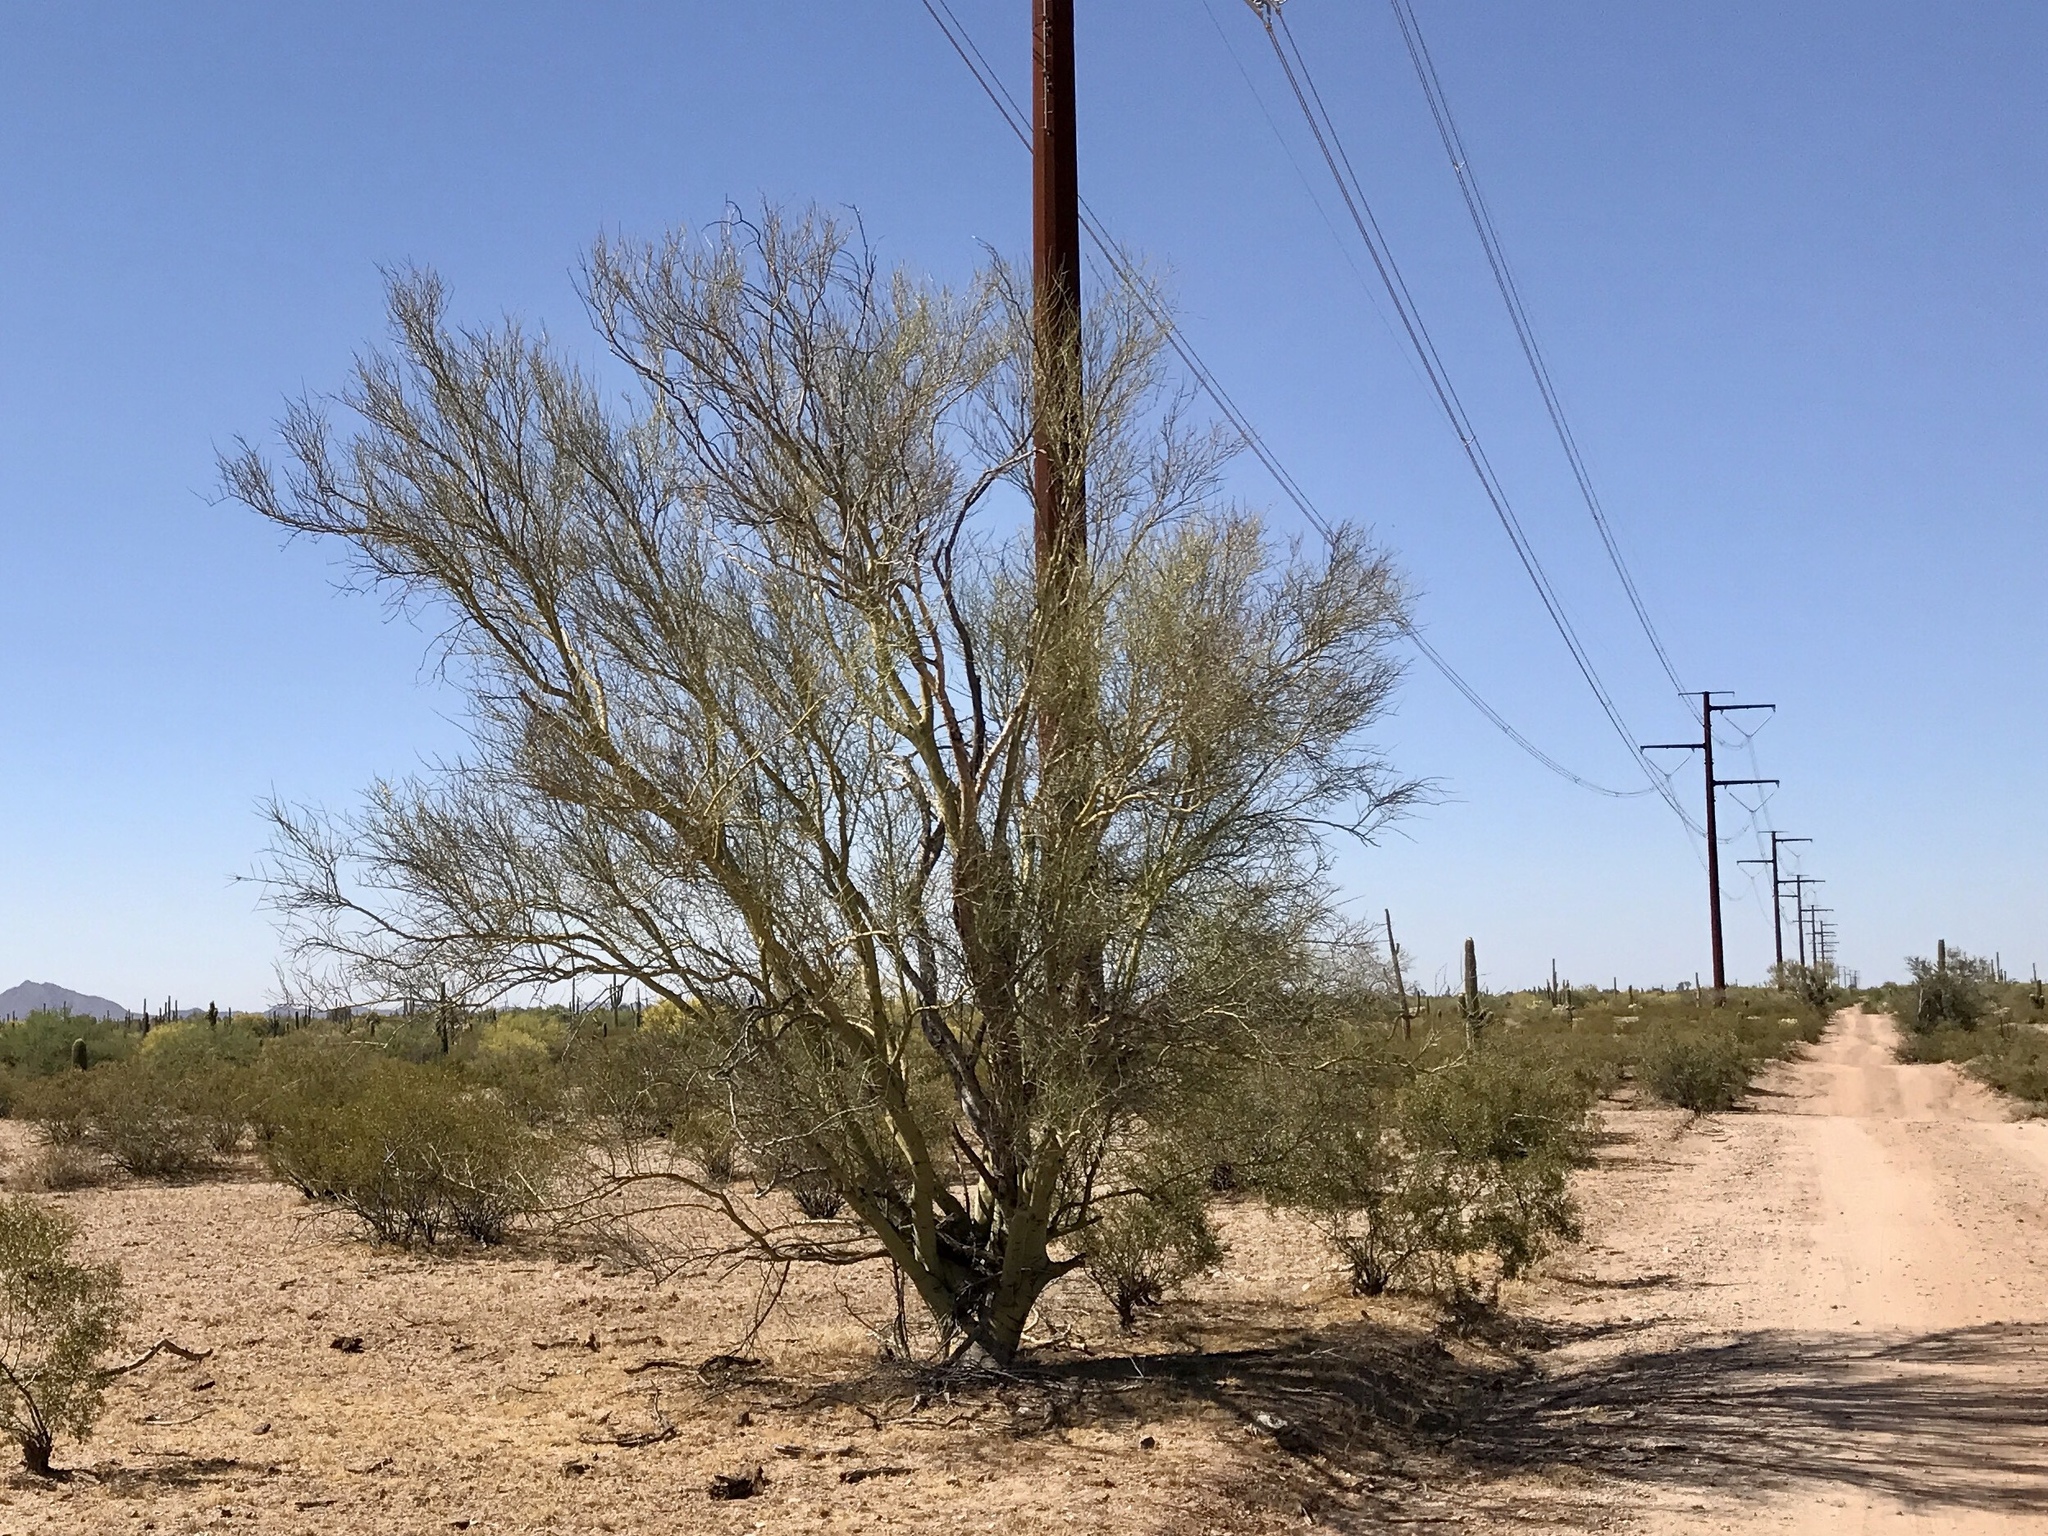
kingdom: Plantae
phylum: Tracheophyta
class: Magnoliopsida
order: Fabales
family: Fabaceae
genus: Parkinsonia
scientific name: Parkinsonia microphylla
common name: Yellow paloverde
